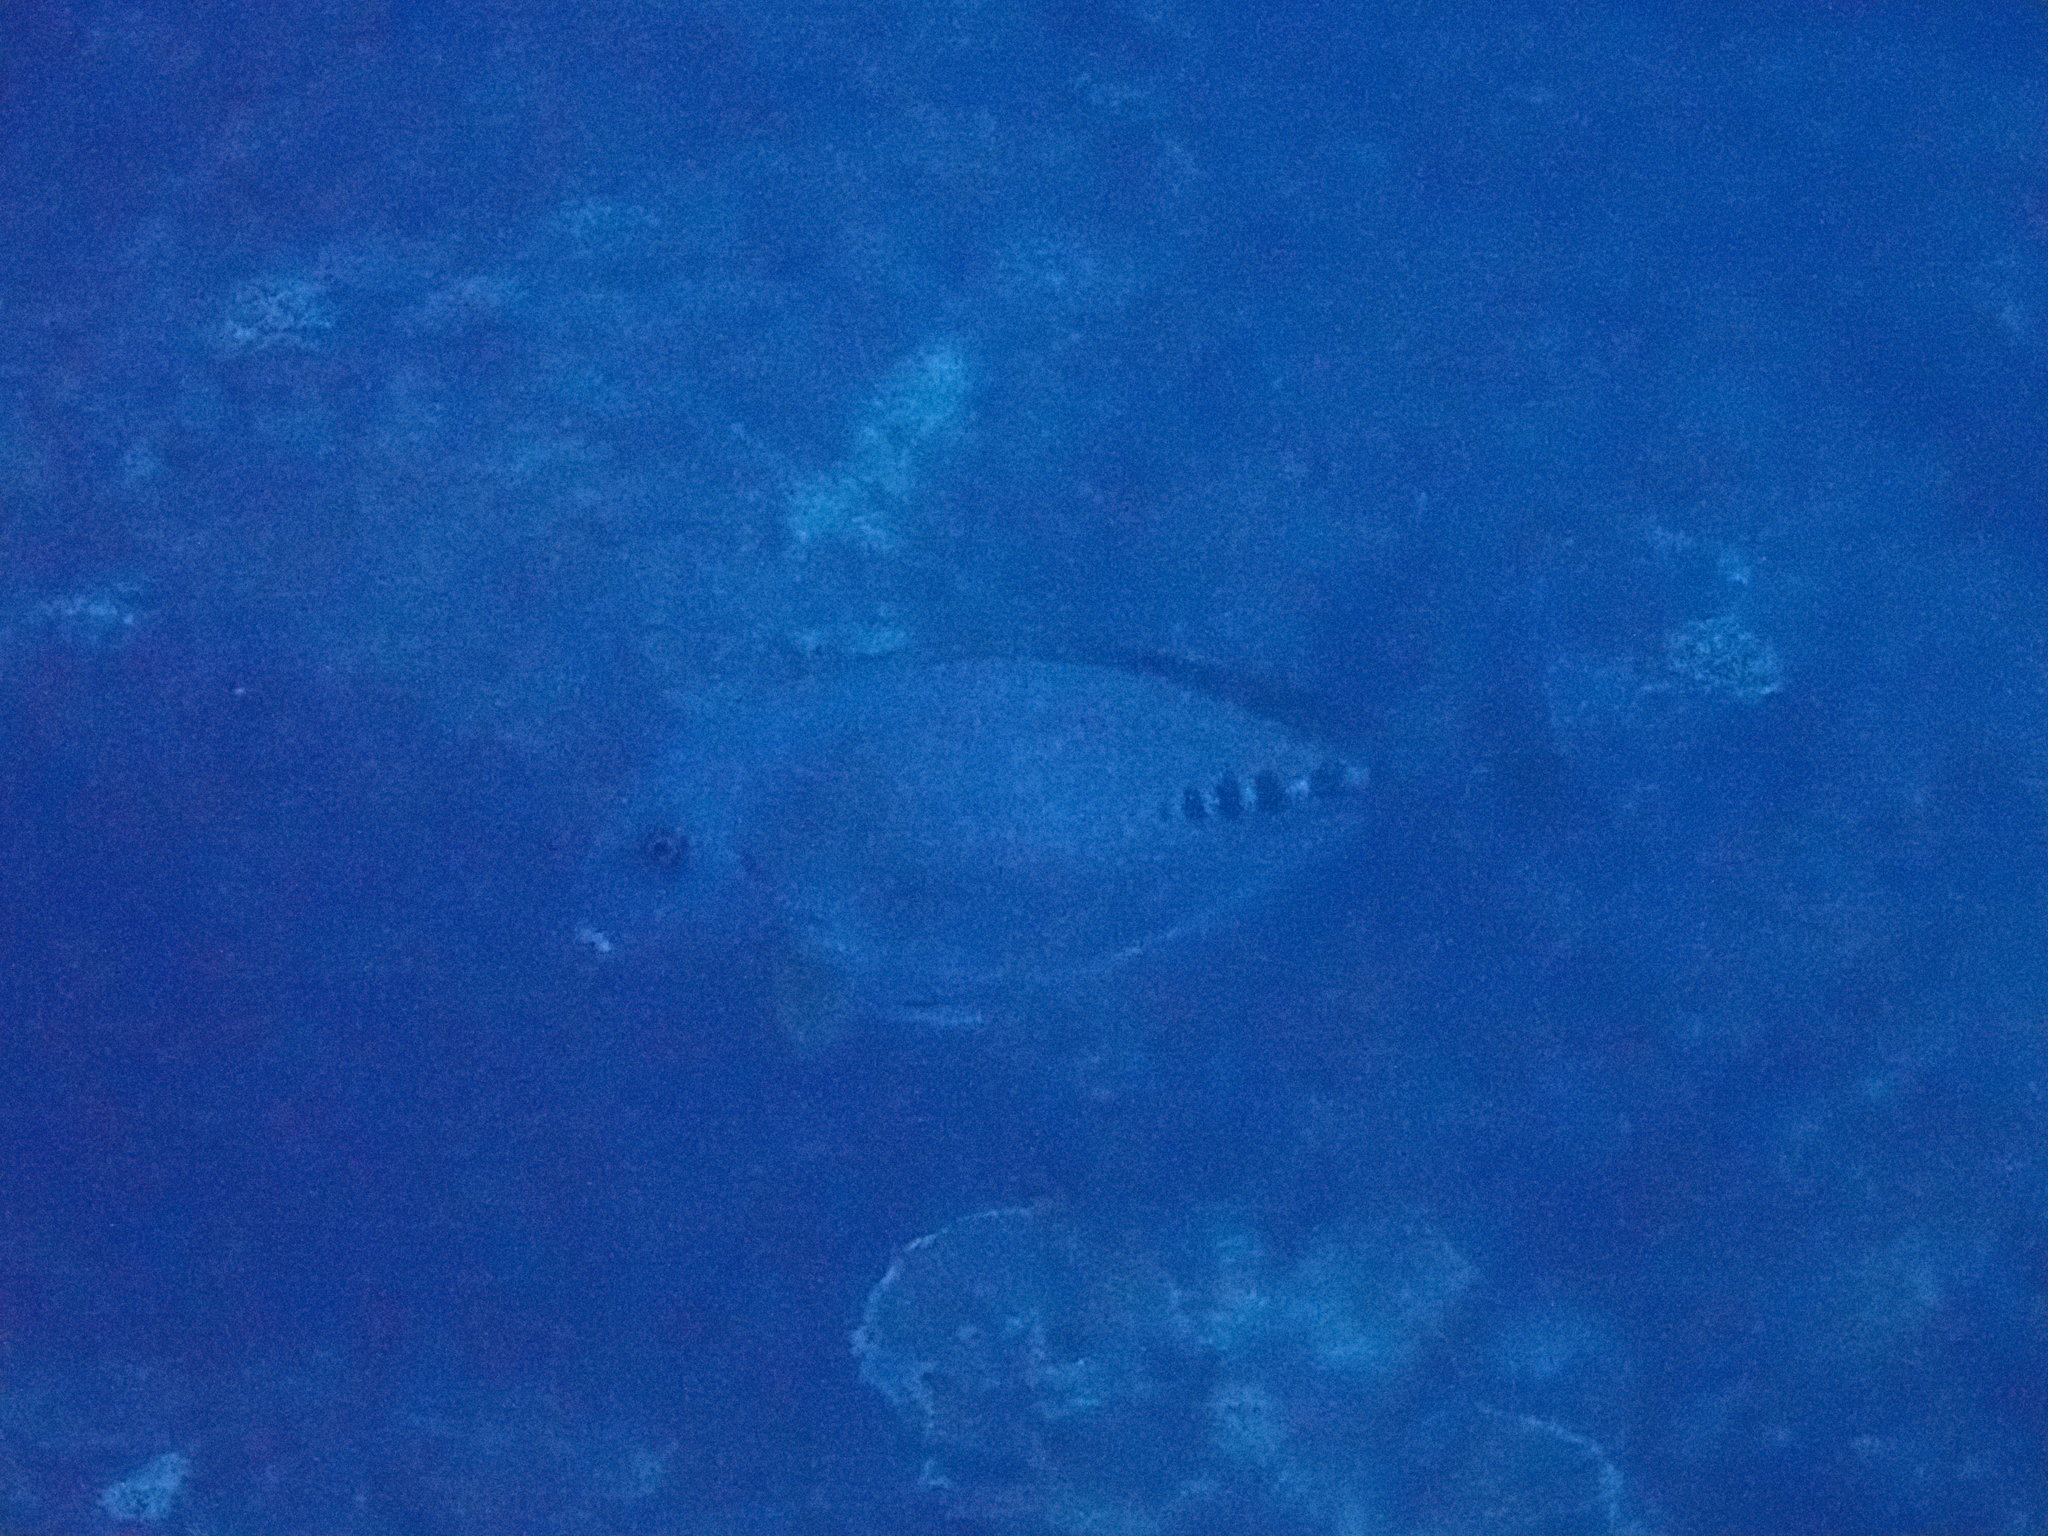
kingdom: Animalia
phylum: Chordata
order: Perciformes
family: Acanthuridae
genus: Prionurus
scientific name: Prionurus microlepidotus
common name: Sixplate sawtail
